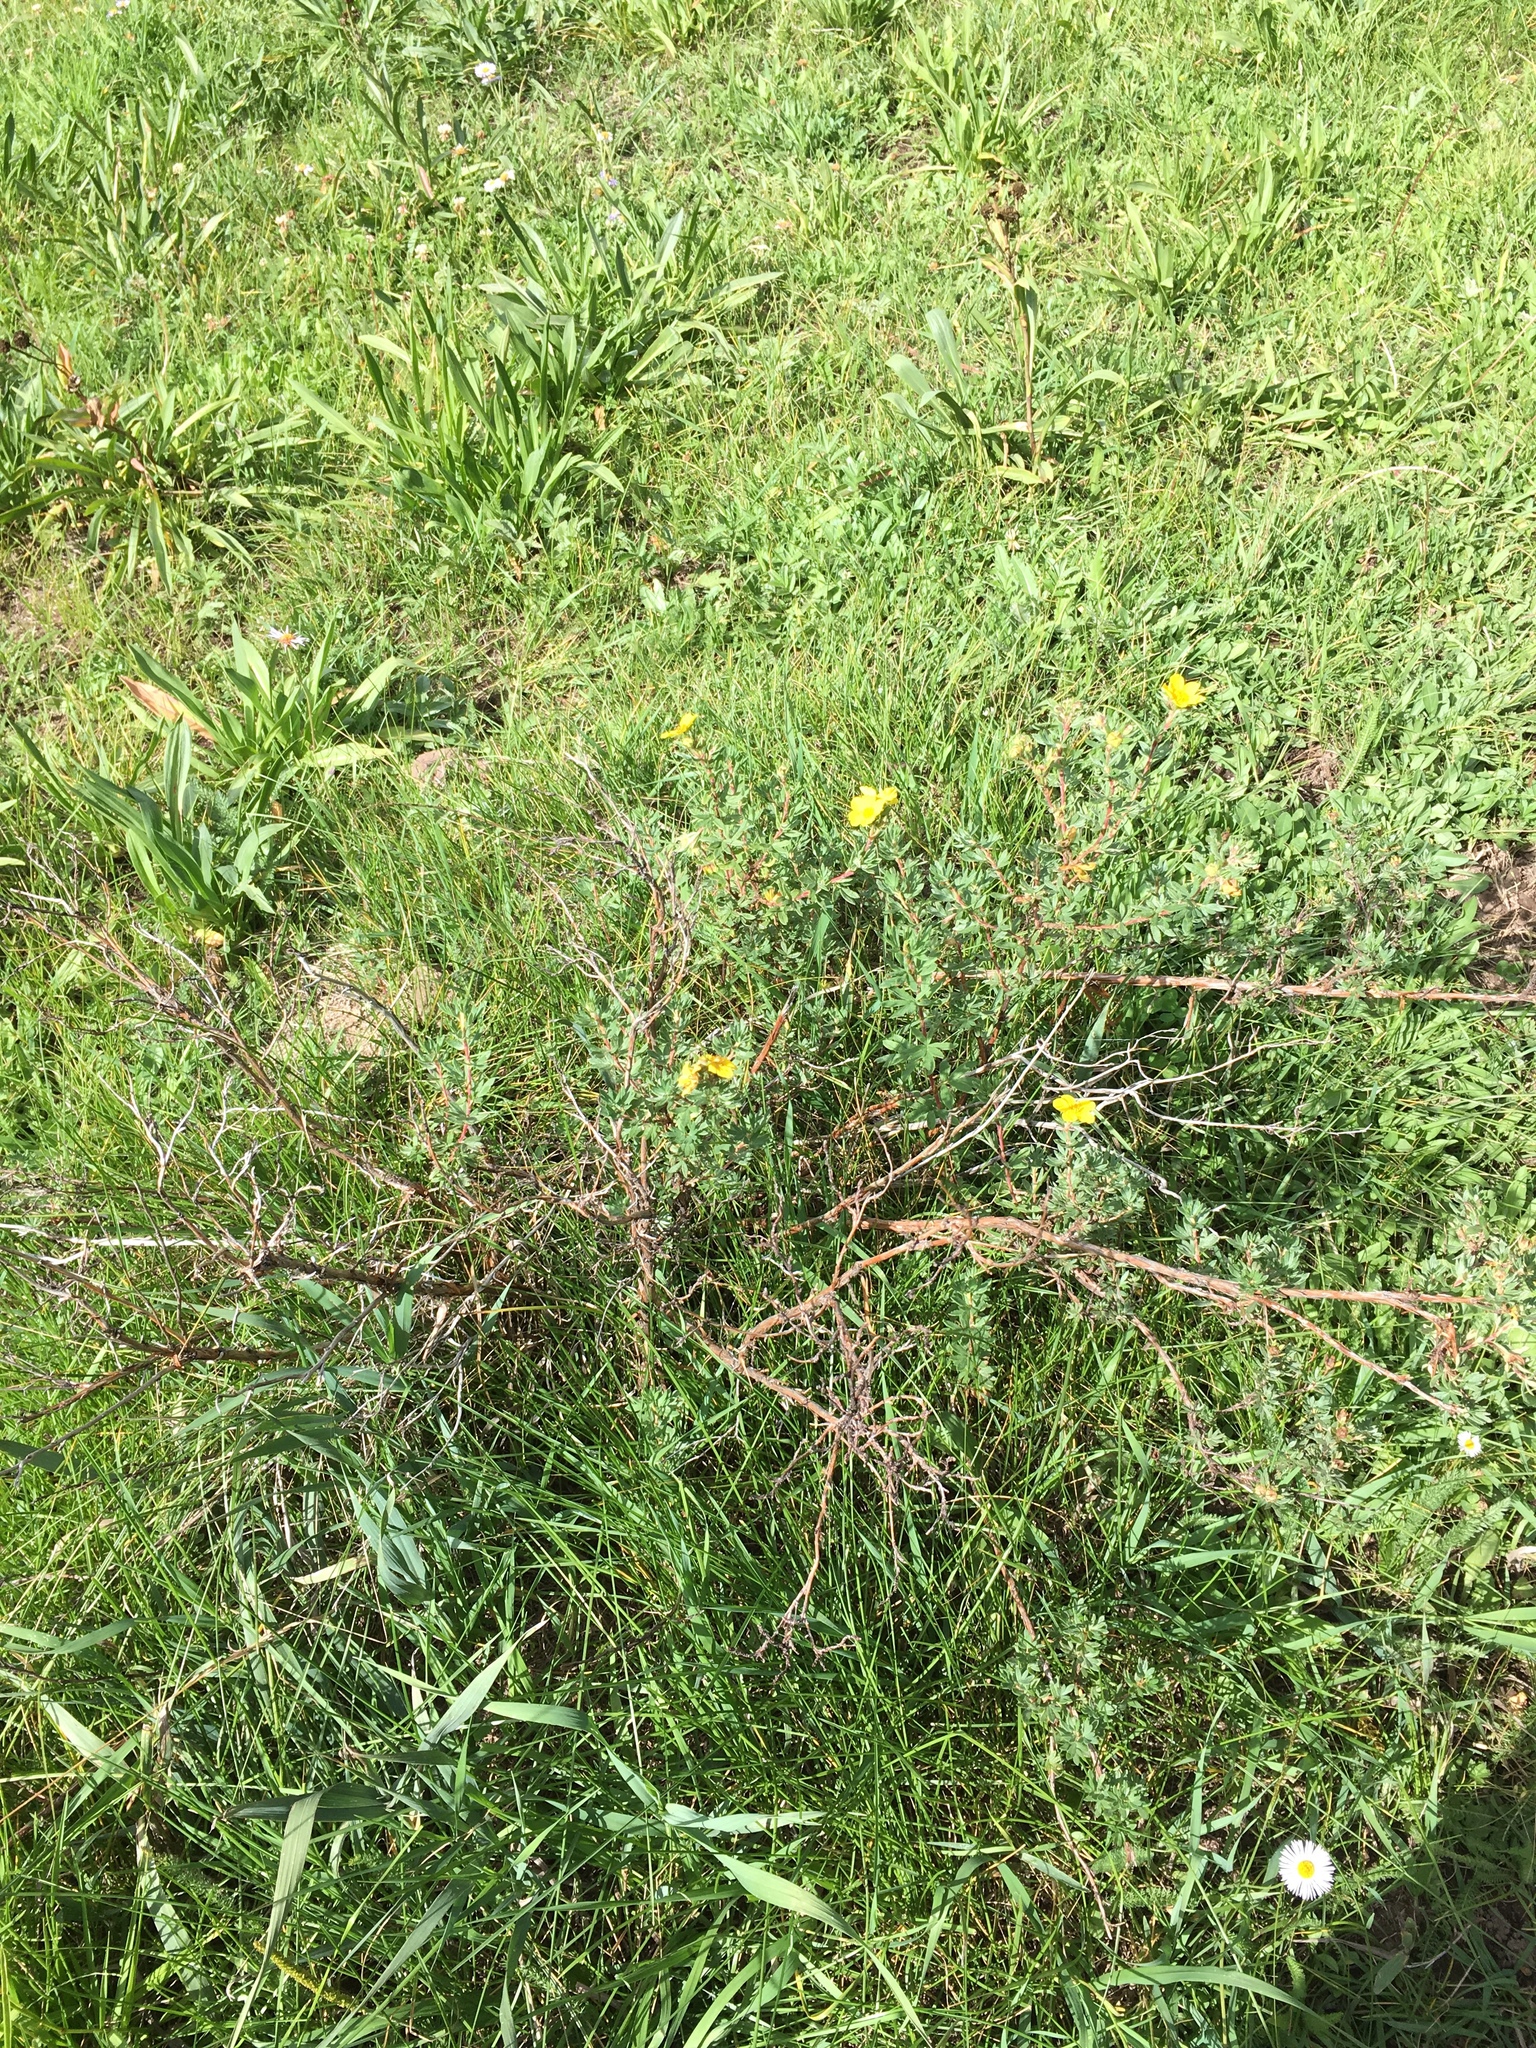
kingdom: Plantae
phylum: Tracheophyta
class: Magnoliopsida
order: Rosales
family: Rosaceae
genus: Dasiphora
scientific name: Dasiphora fruticosa
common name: Shrubby cinquefoil
